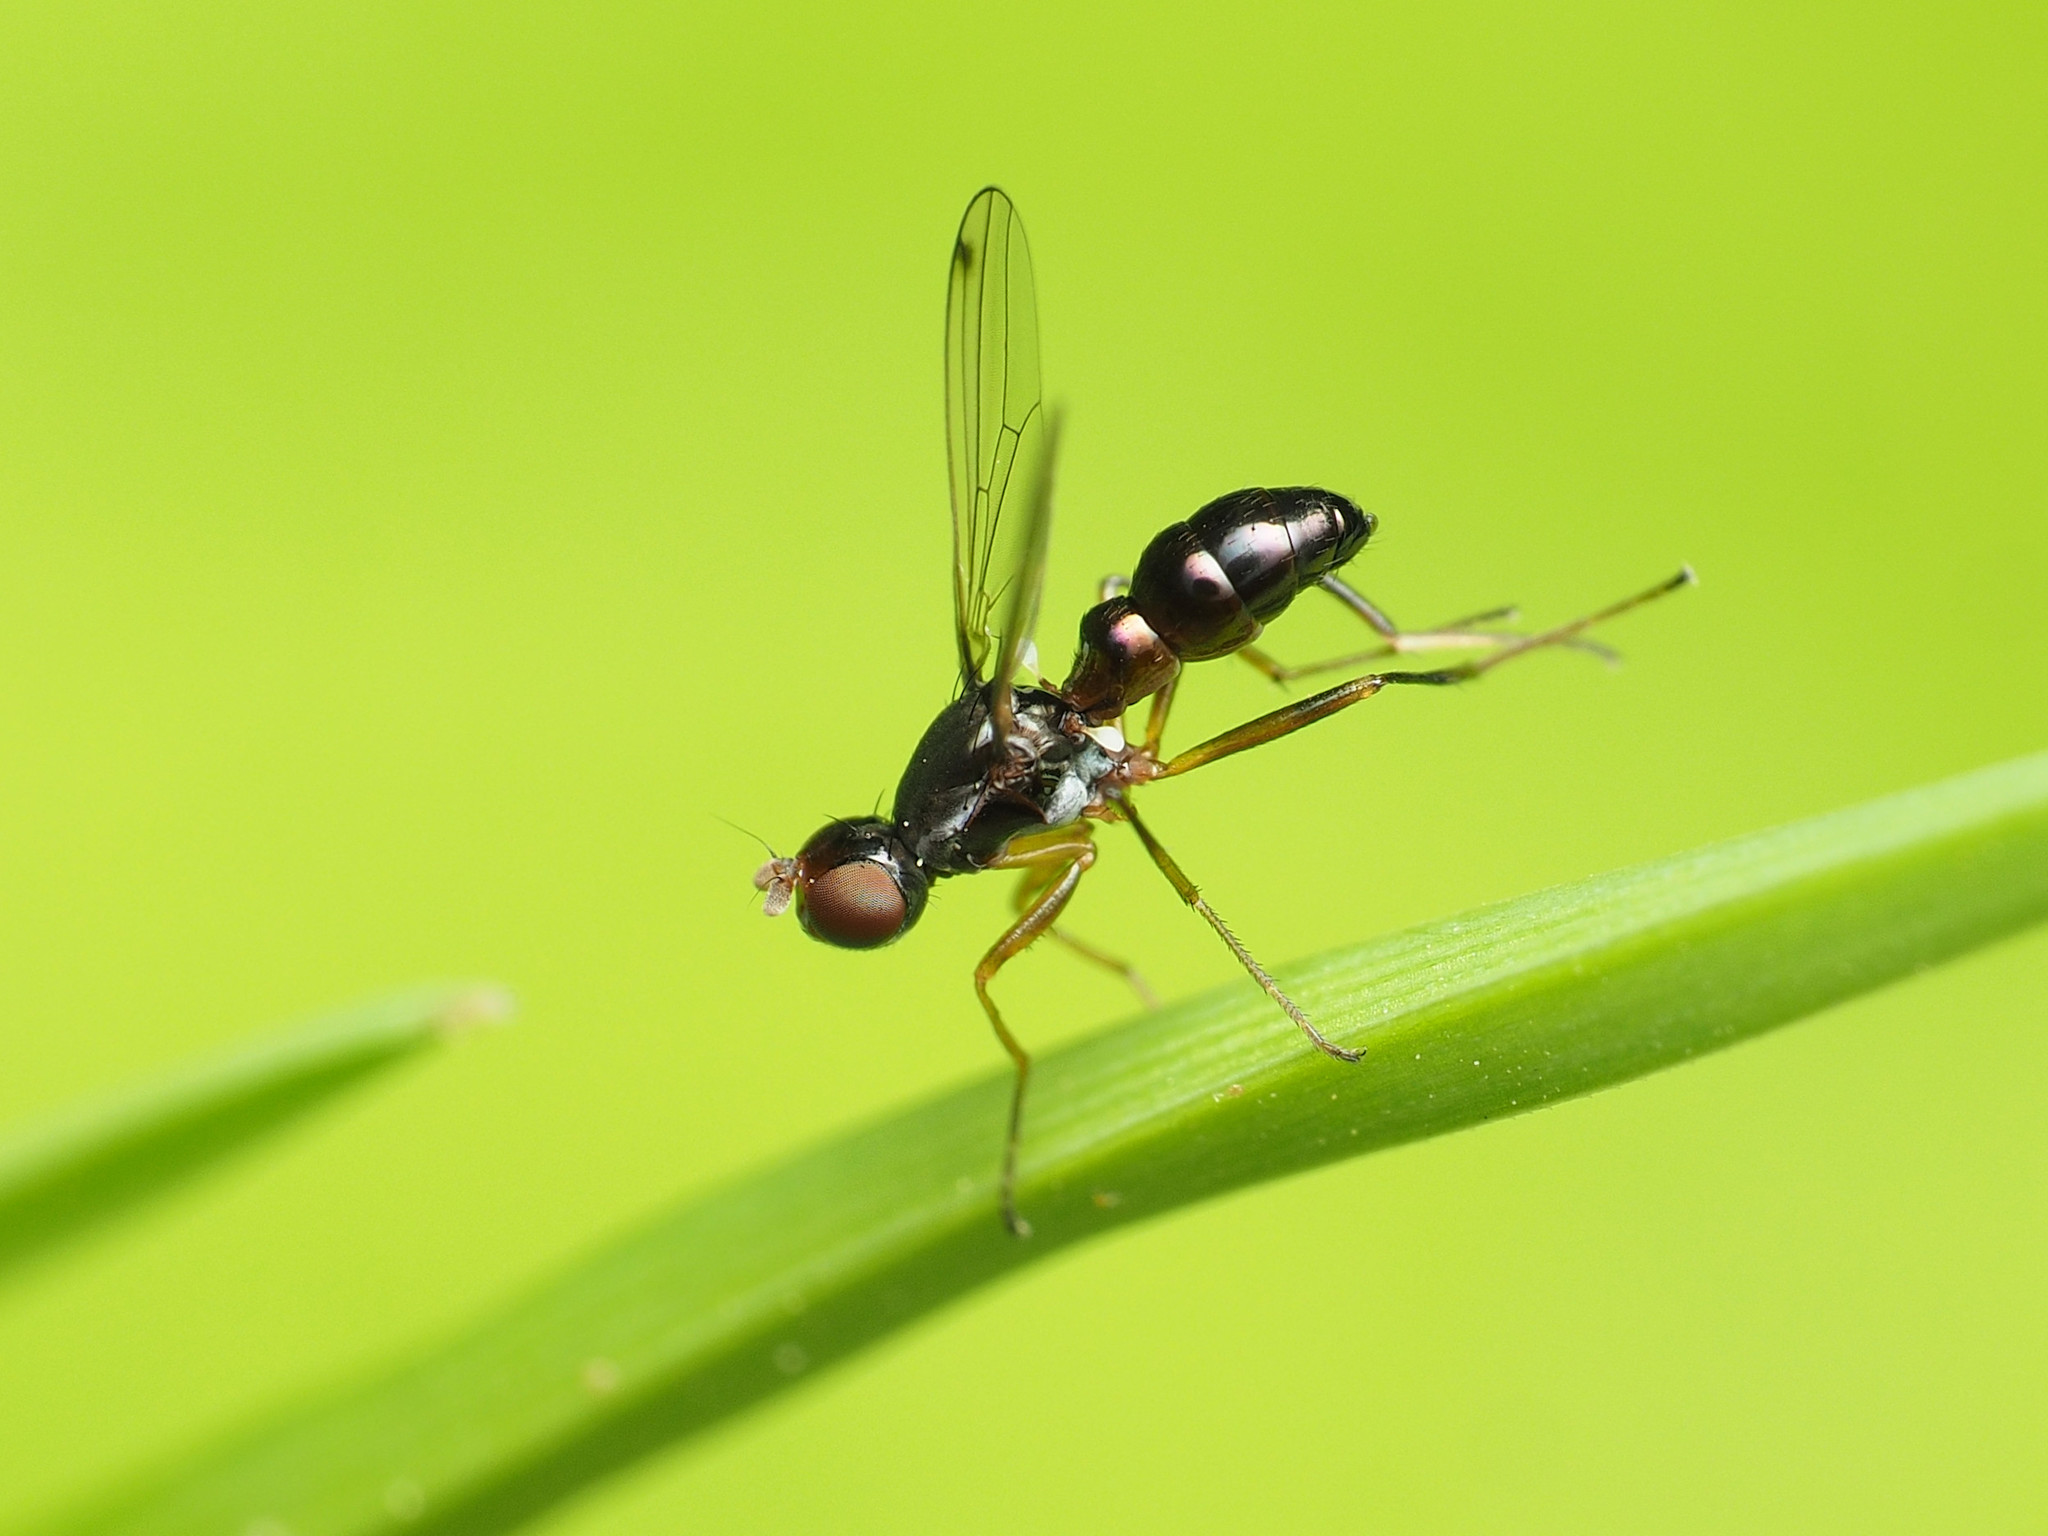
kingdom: Animalia
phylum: Arthropoda
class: Insecta
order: Diptera
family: Sepsidae
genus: Sepsis
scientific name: Sepsis punctum
